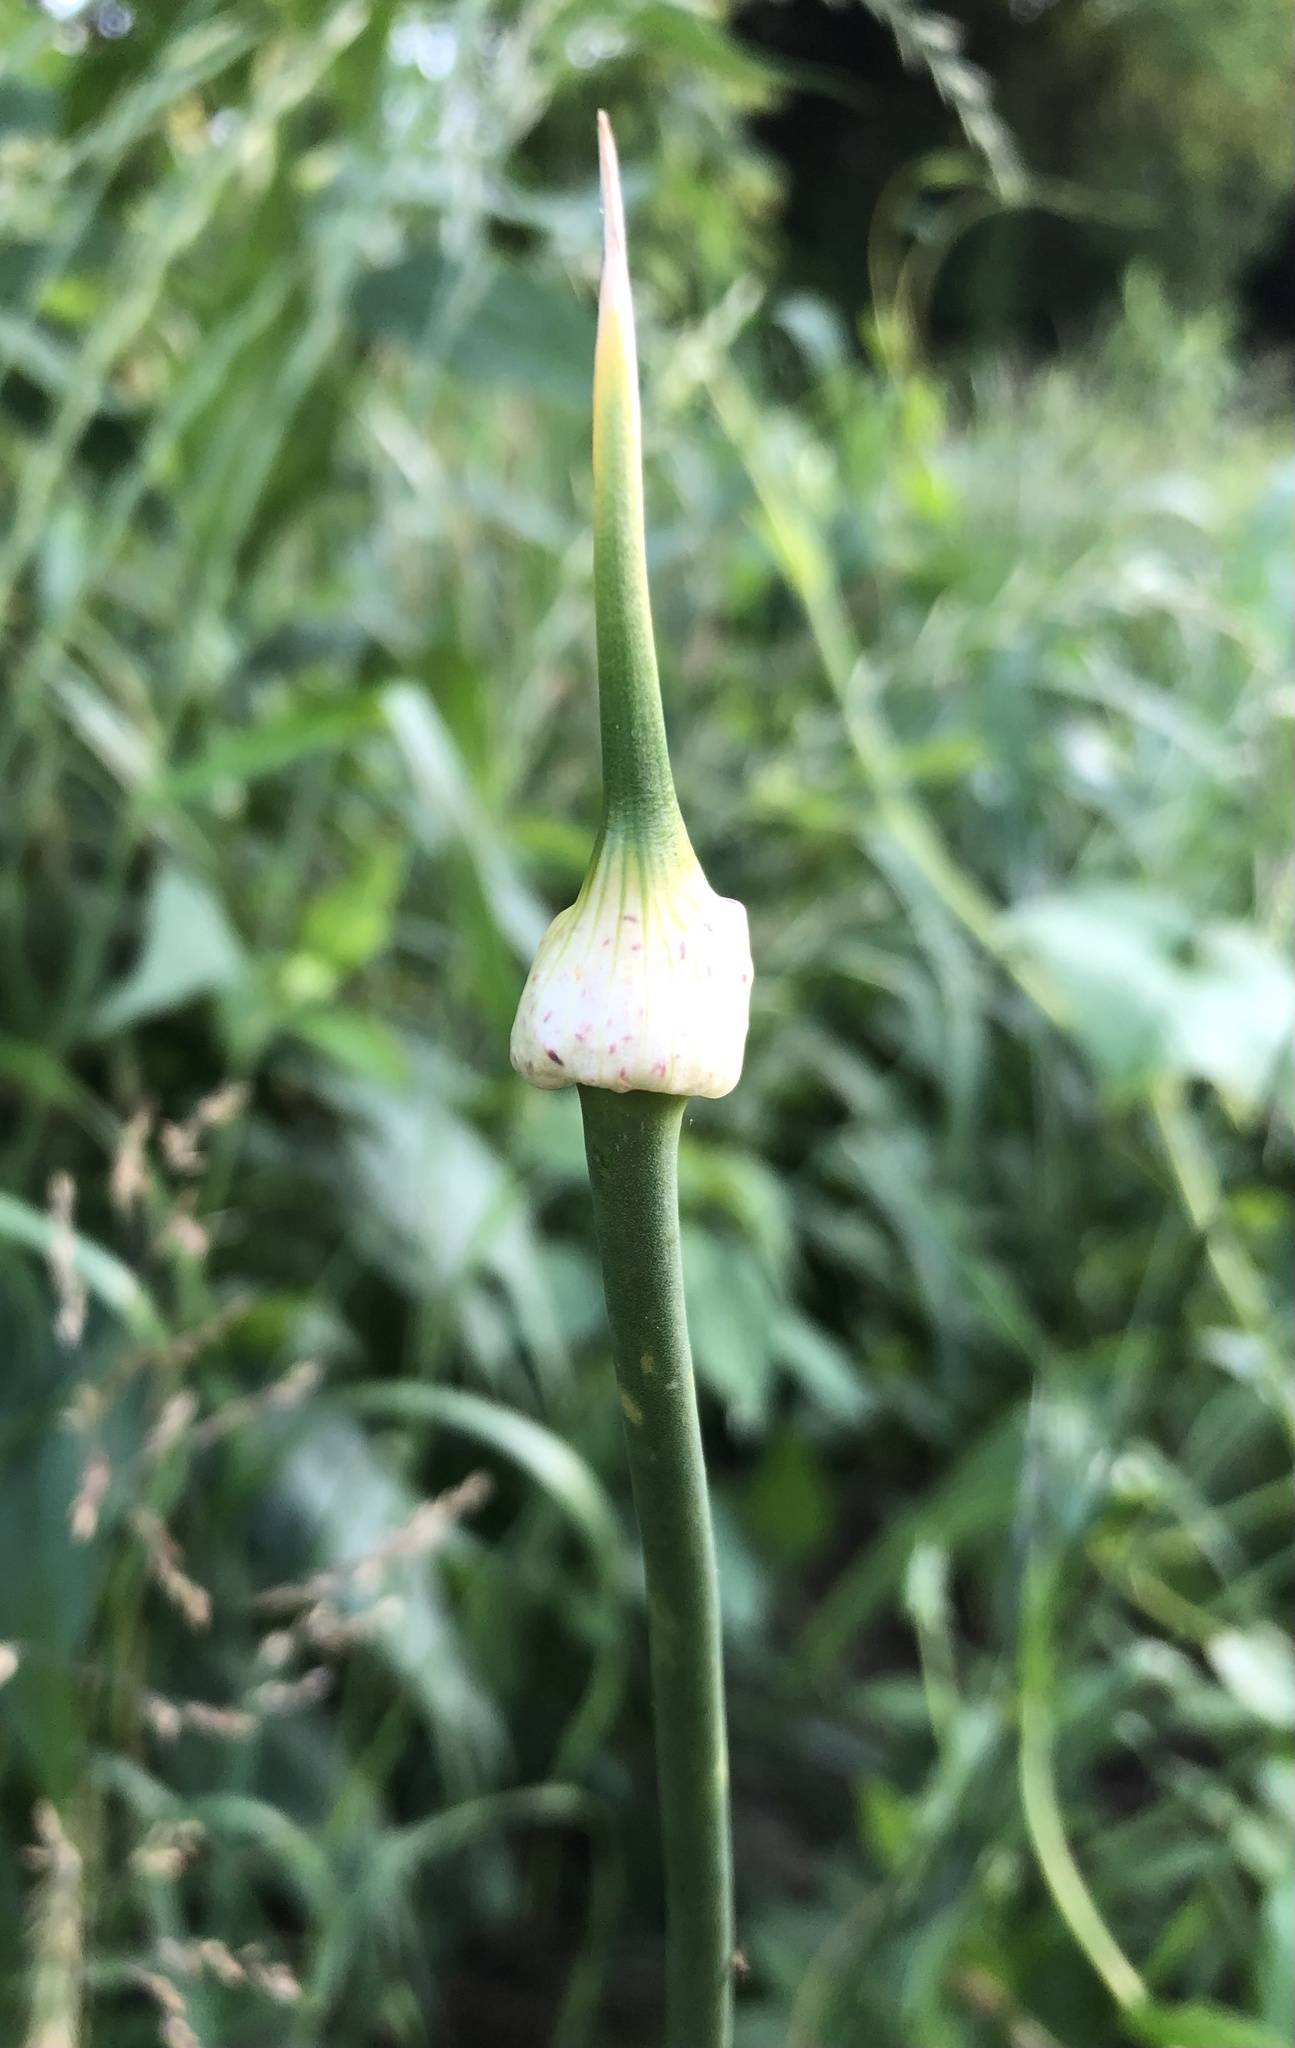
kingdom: Plantae
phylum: Tracheophyta
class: Liliopsida
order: Asparagales
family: Amaryllidaceae
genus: Allium
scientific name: Allium vineale
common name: Crow garlic
